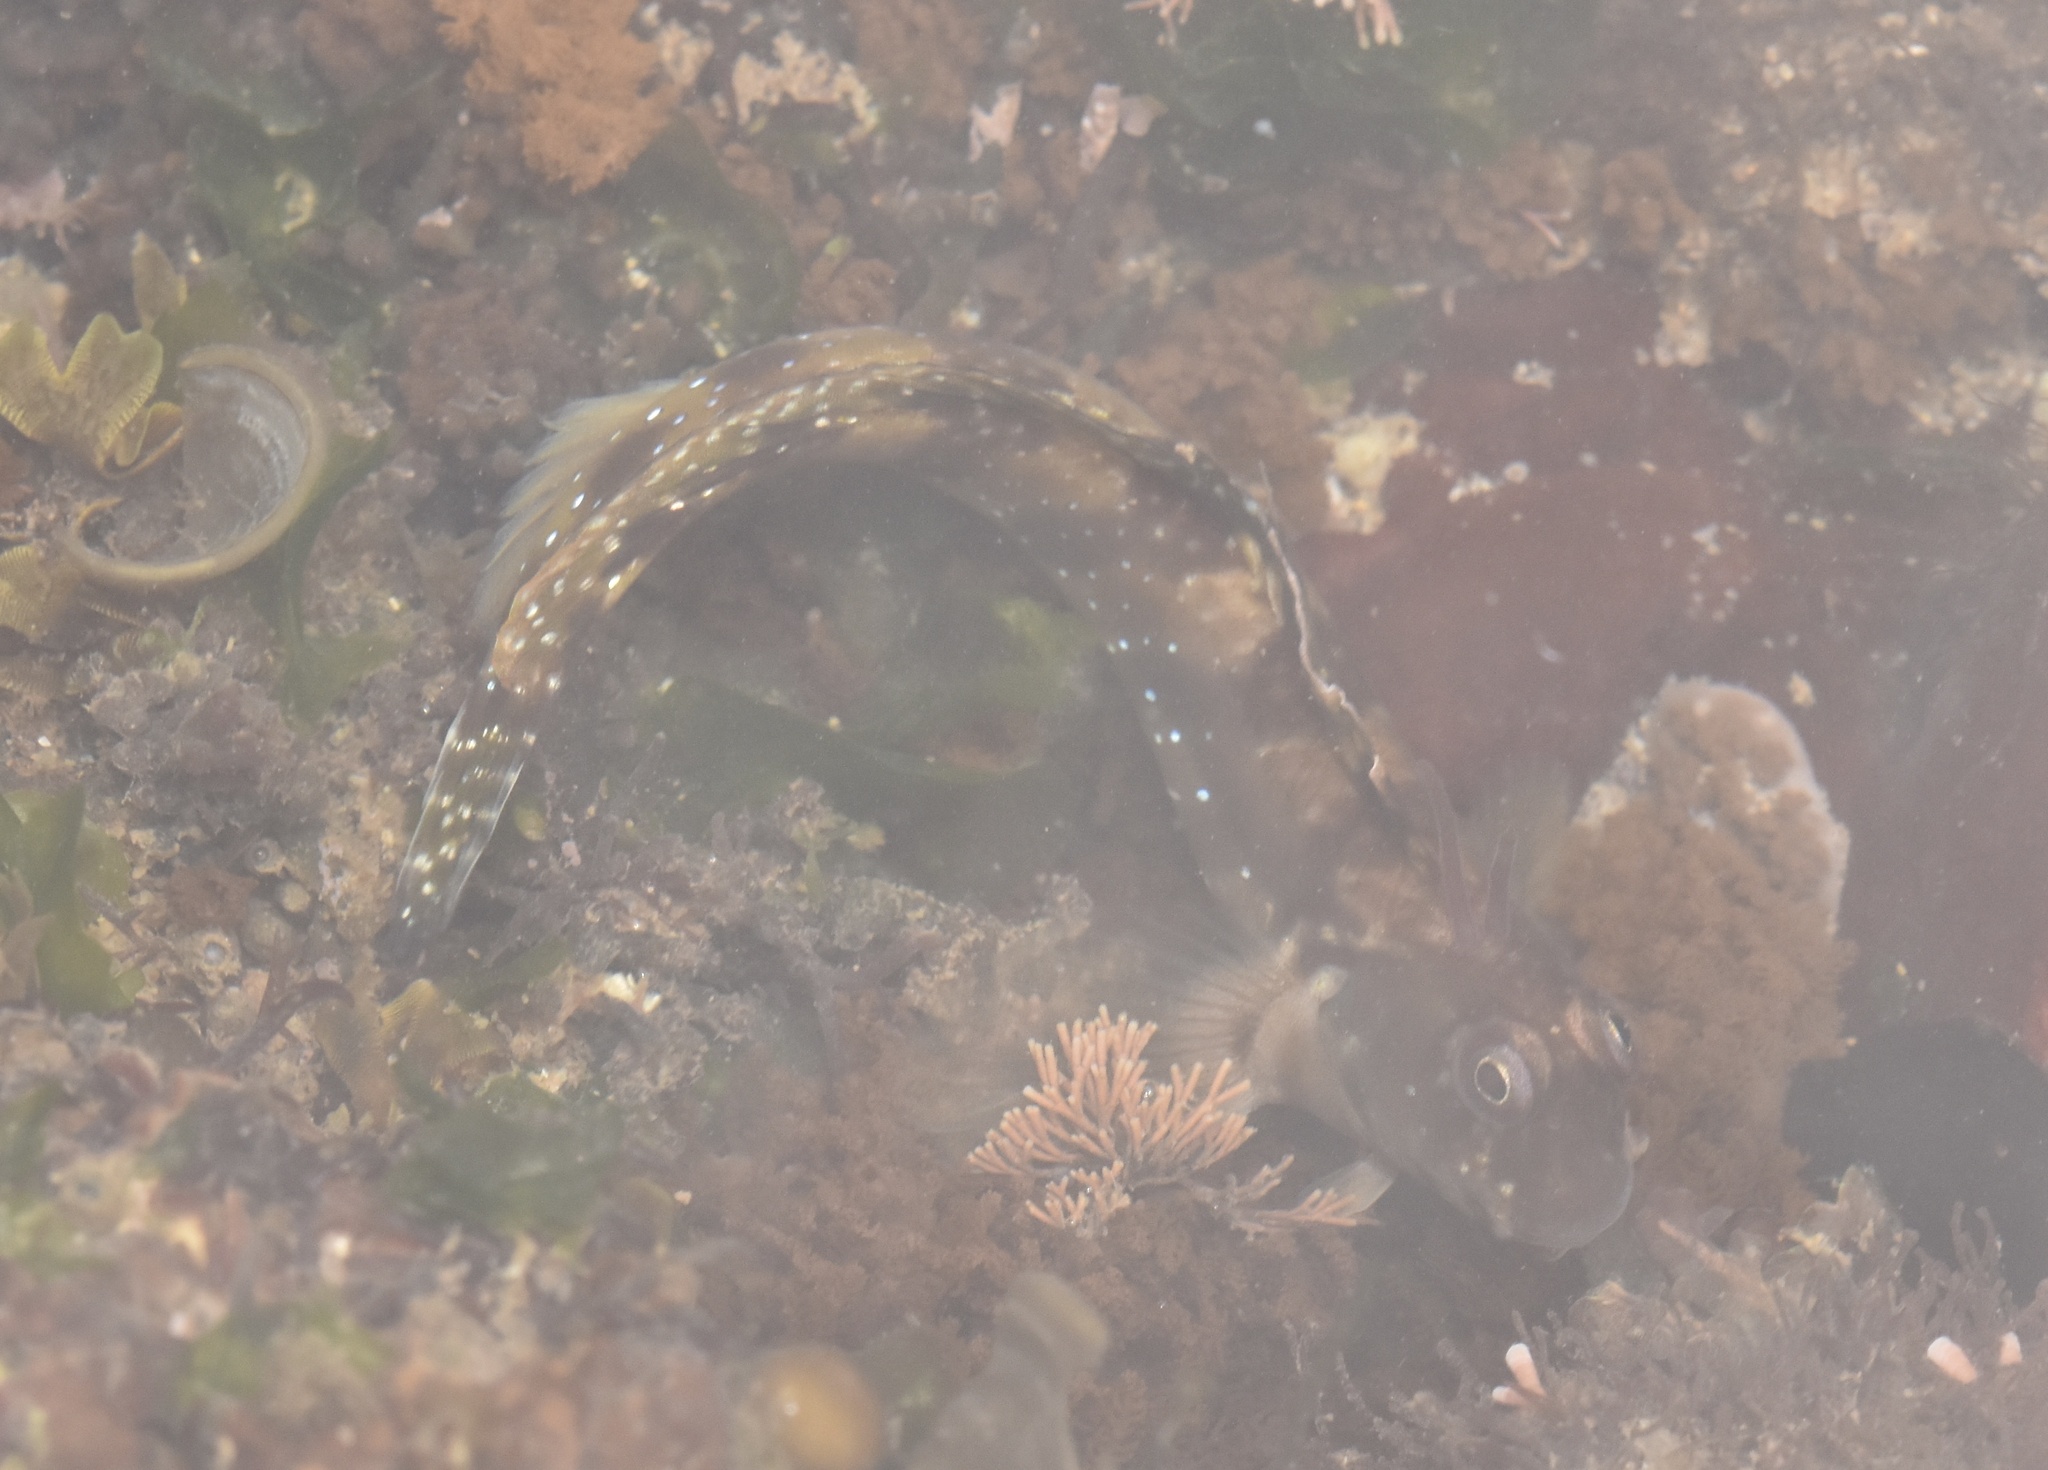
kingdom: Animalia
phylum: Chordata
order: Perciformes
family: Blenniidae
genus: Antennablennius
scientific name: Antennablennius bifilum
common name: Horned rockskipper
